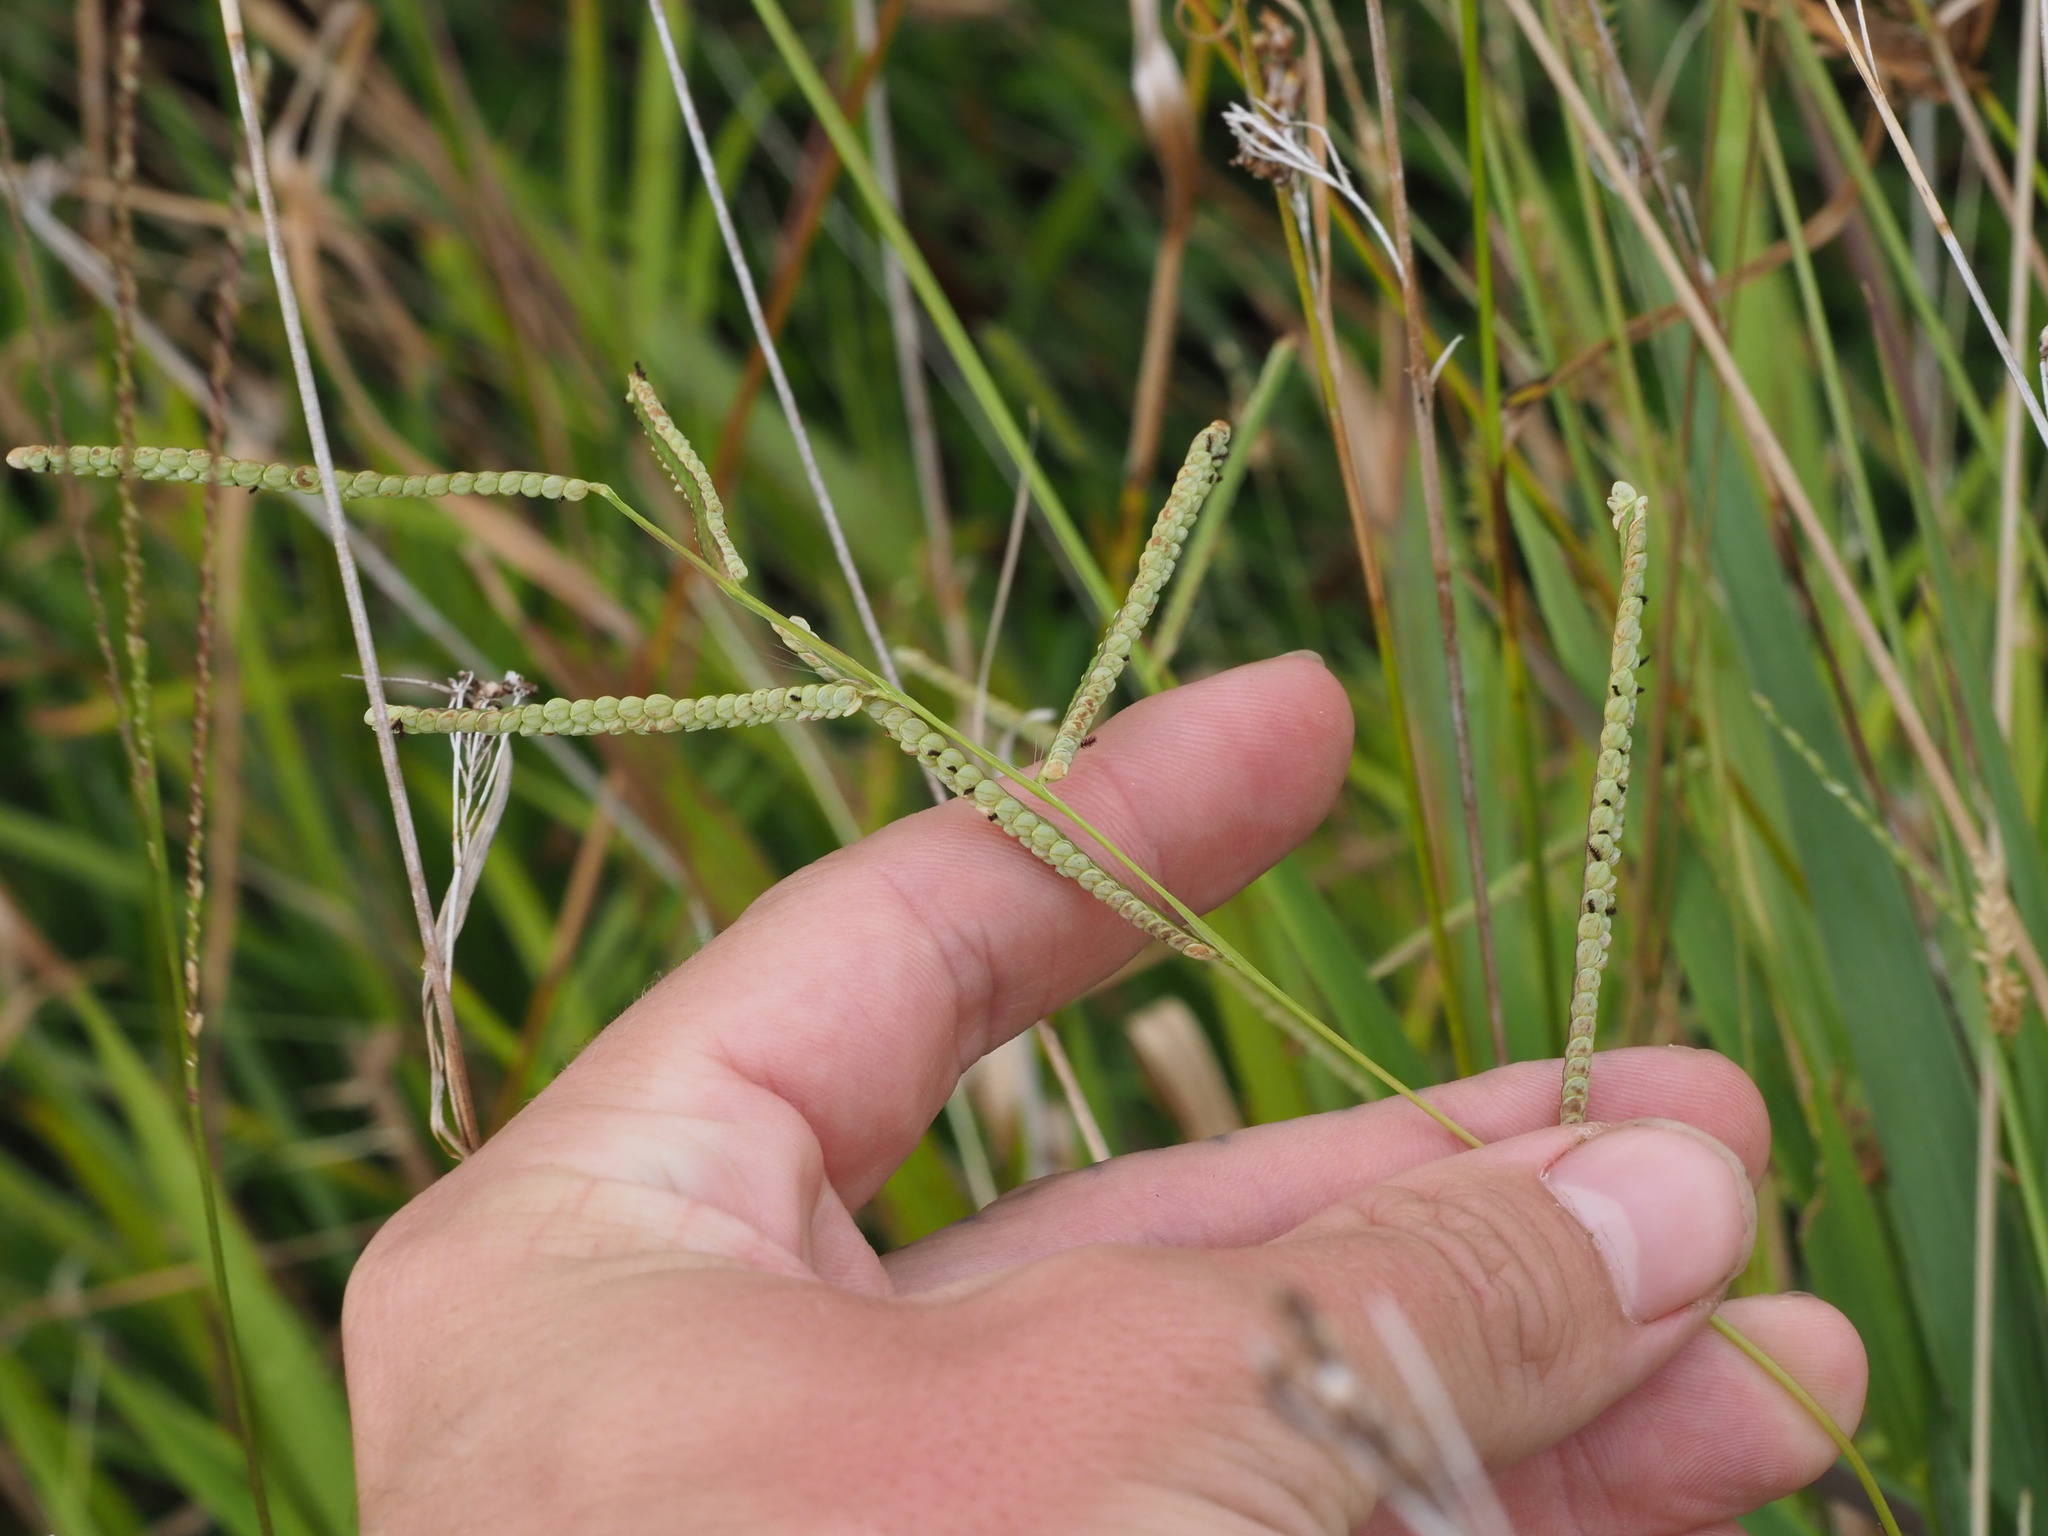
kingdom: Plantae
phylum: Tracheophyta
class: Liliopsida
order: Poales
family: Poaceae
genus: Paspalum
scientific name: Paspalum scrobiculatum
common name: Kodo millet
